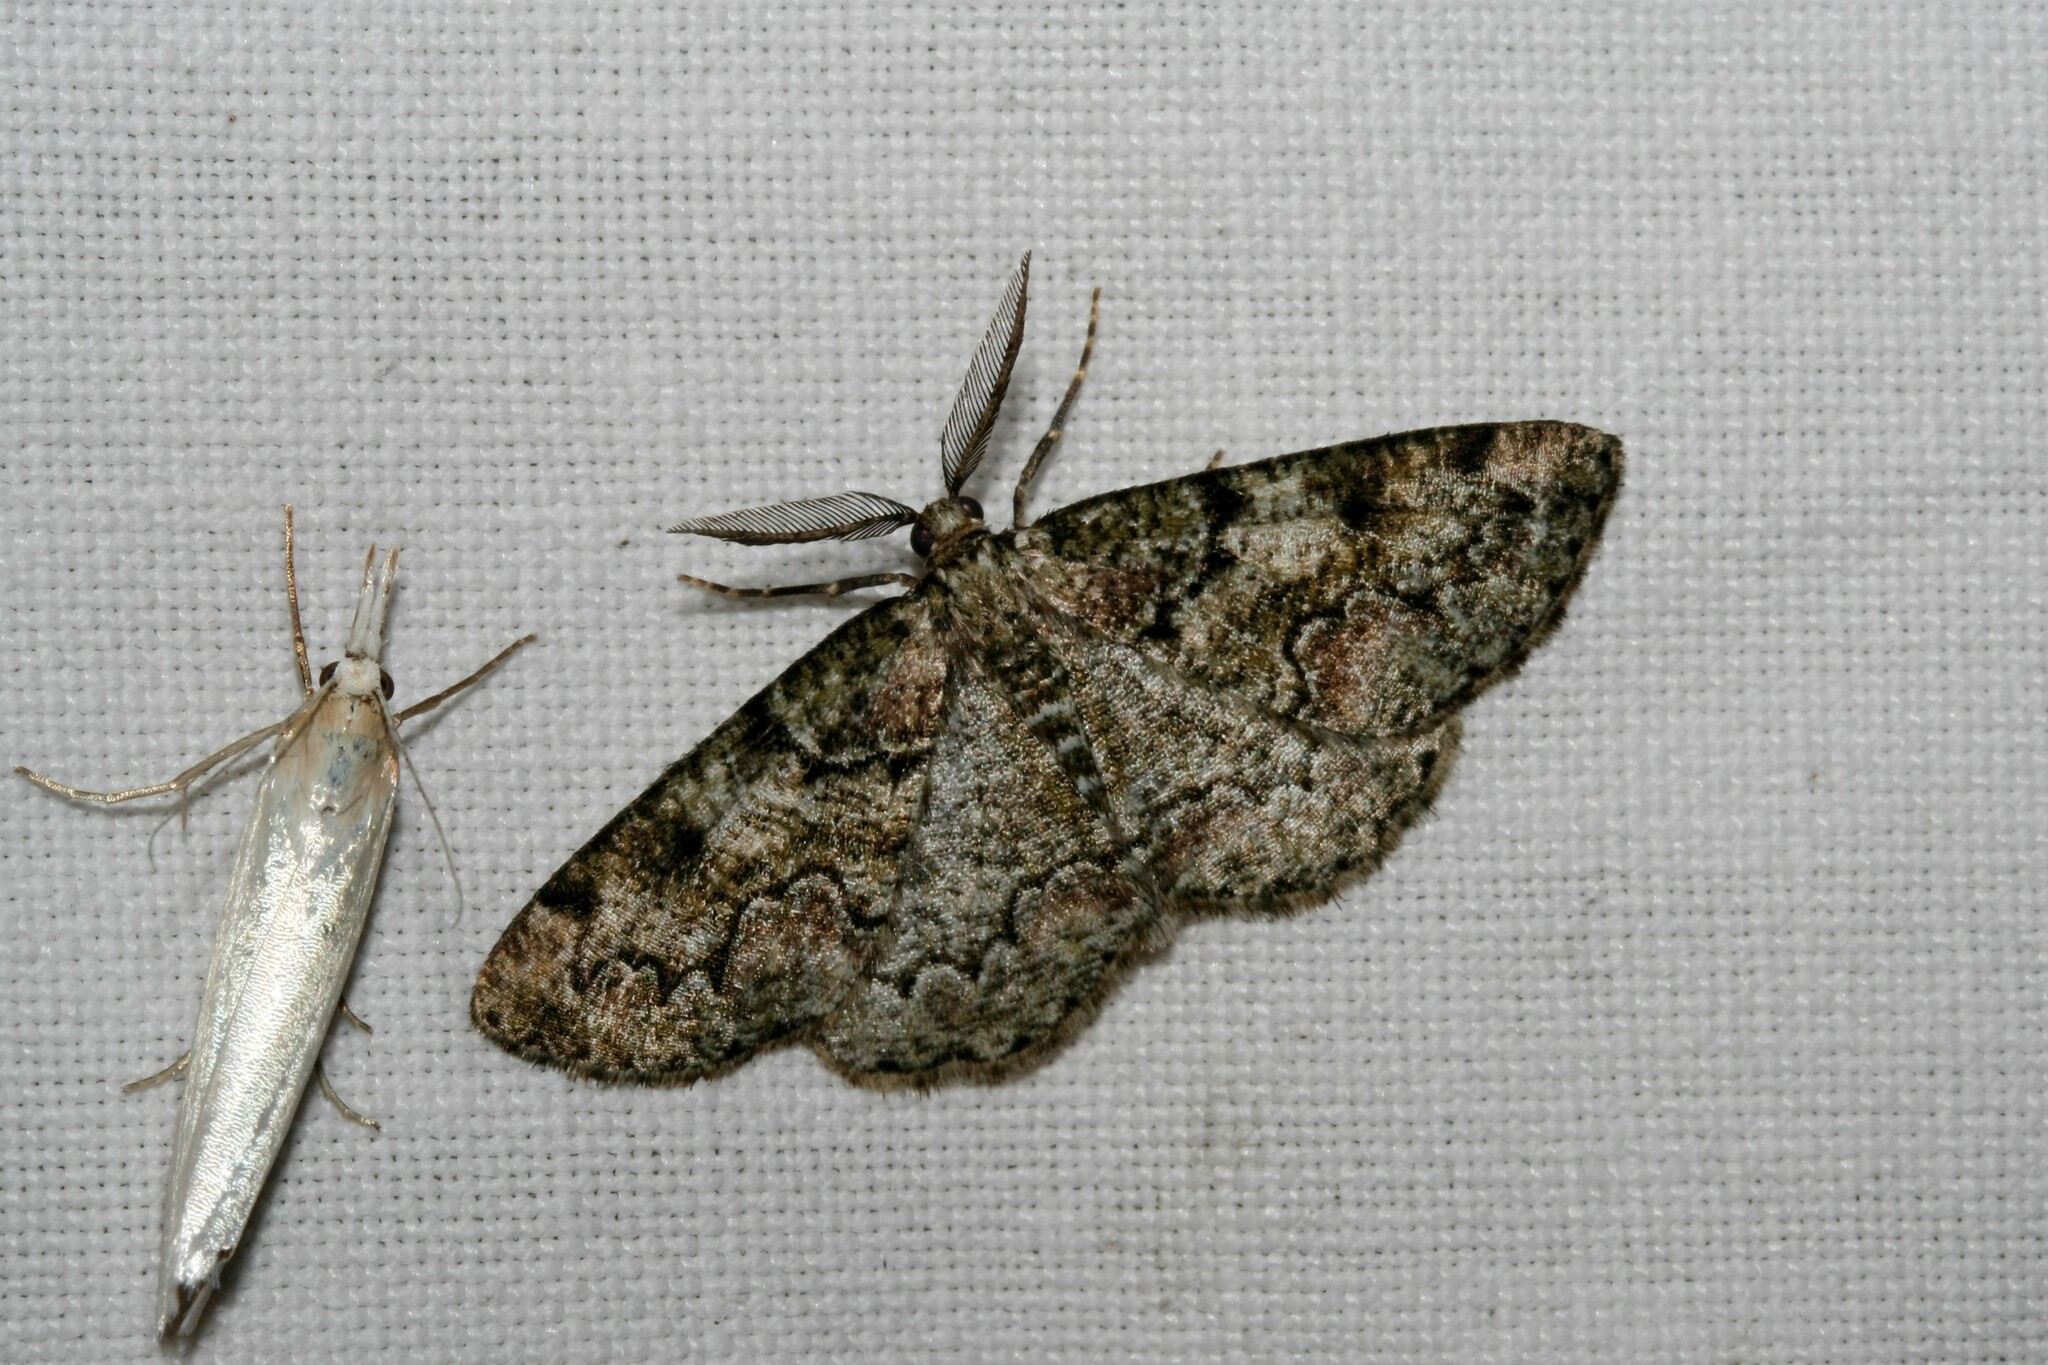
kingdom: Animalia
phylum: Arthropoda
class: Insecta
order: Lepidoptera
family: Geometridae
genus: Cleorodes
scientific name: Cleorodes lichenaria
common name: Brussels lace
